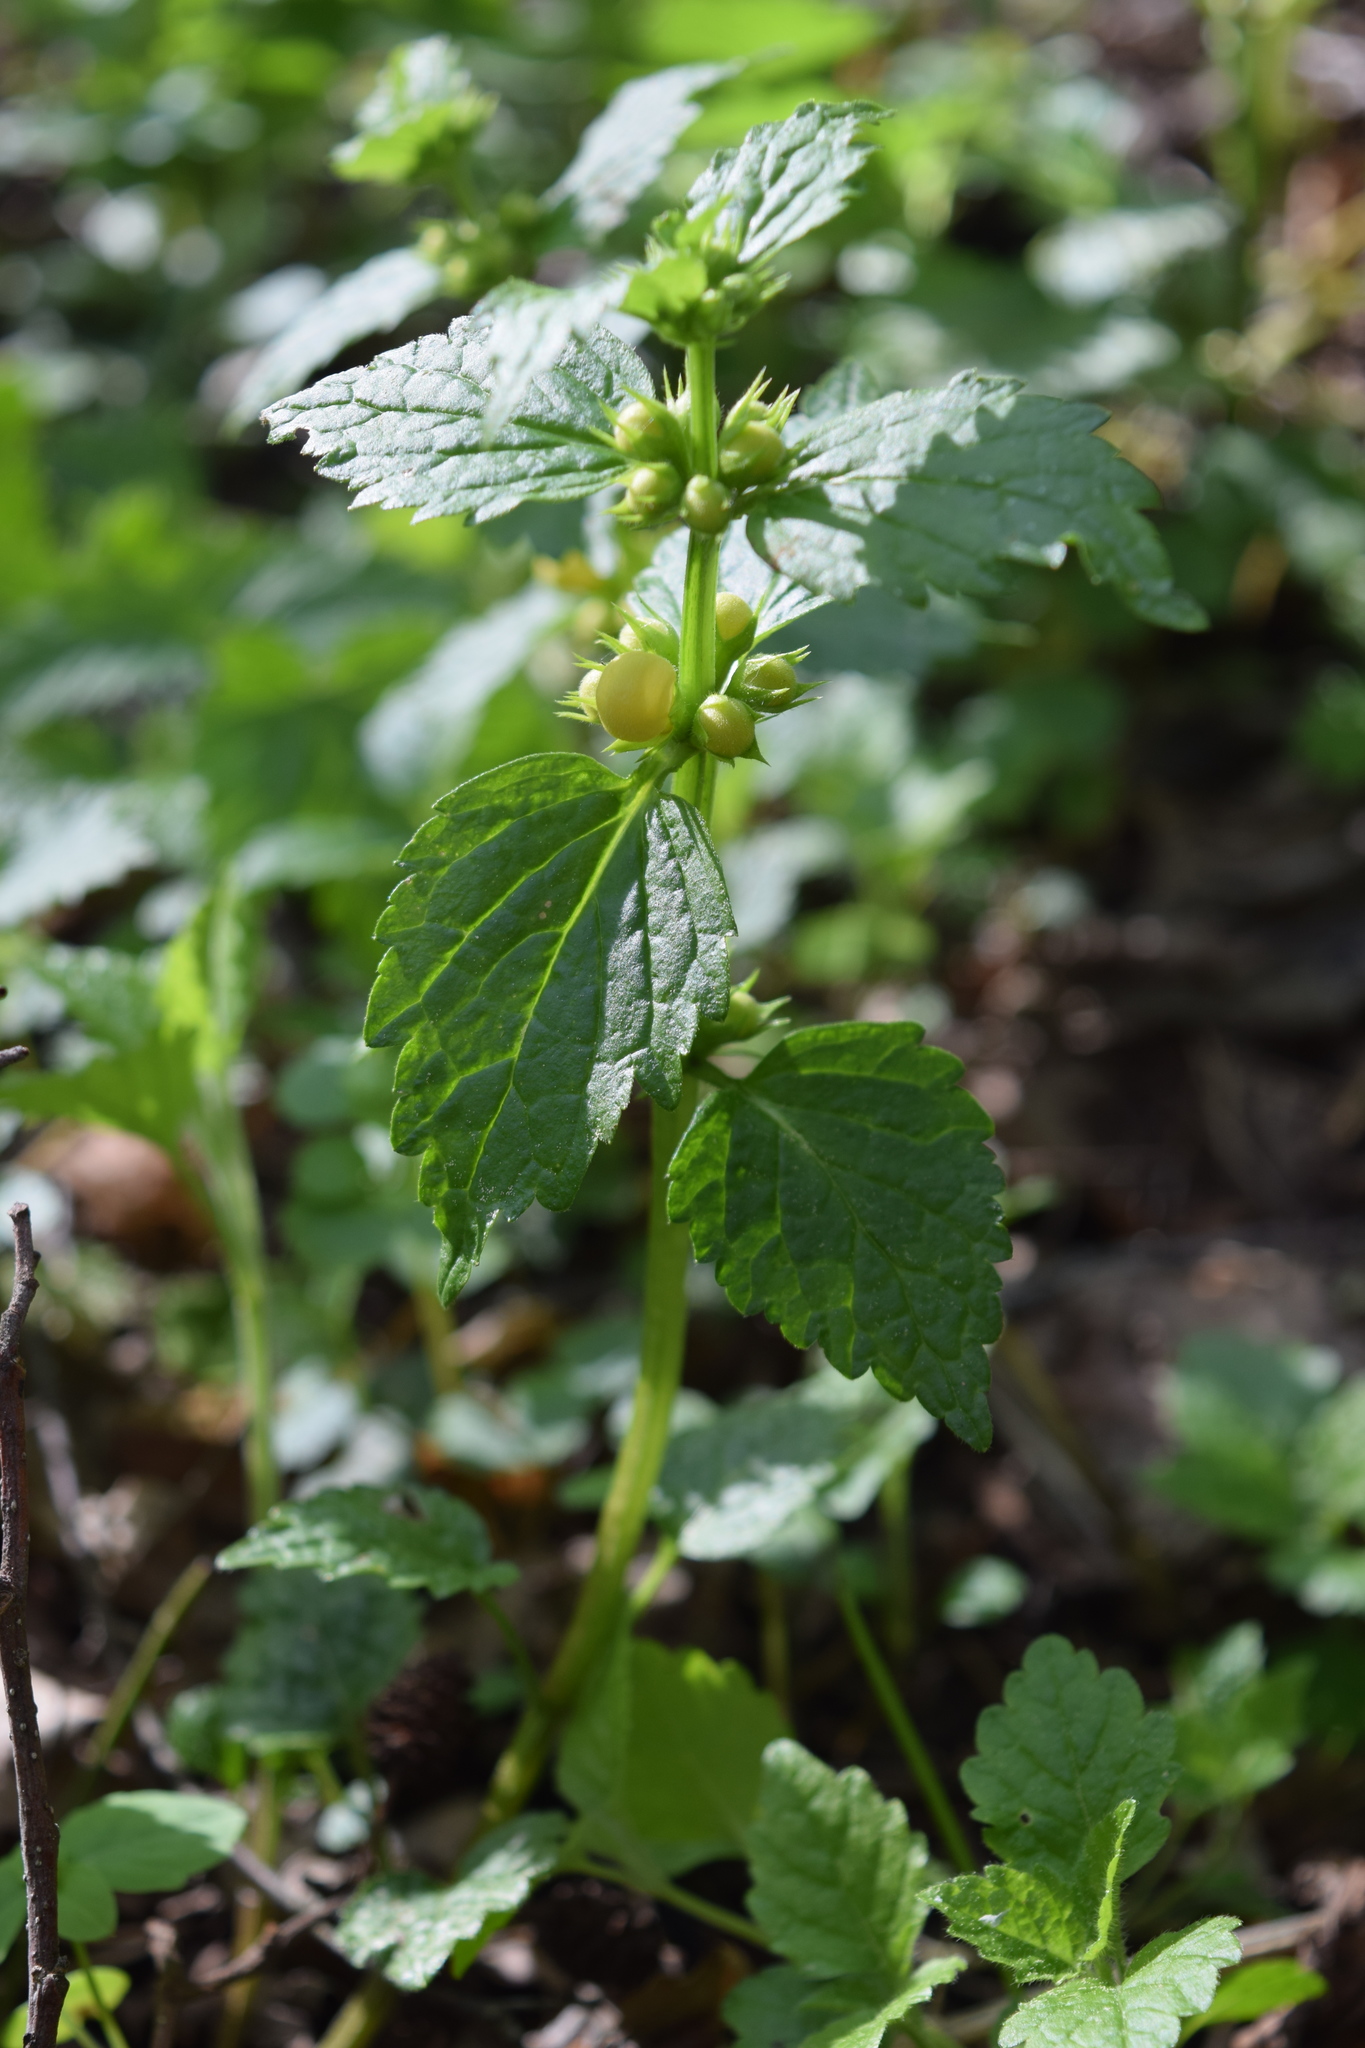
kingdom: Plantae
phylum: Tracheophyta
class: Magnoliopsida
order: Lamiales
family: Lamiaceae
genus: Lamium
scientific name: Lamium galeobdolon
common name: Yellow archangel
